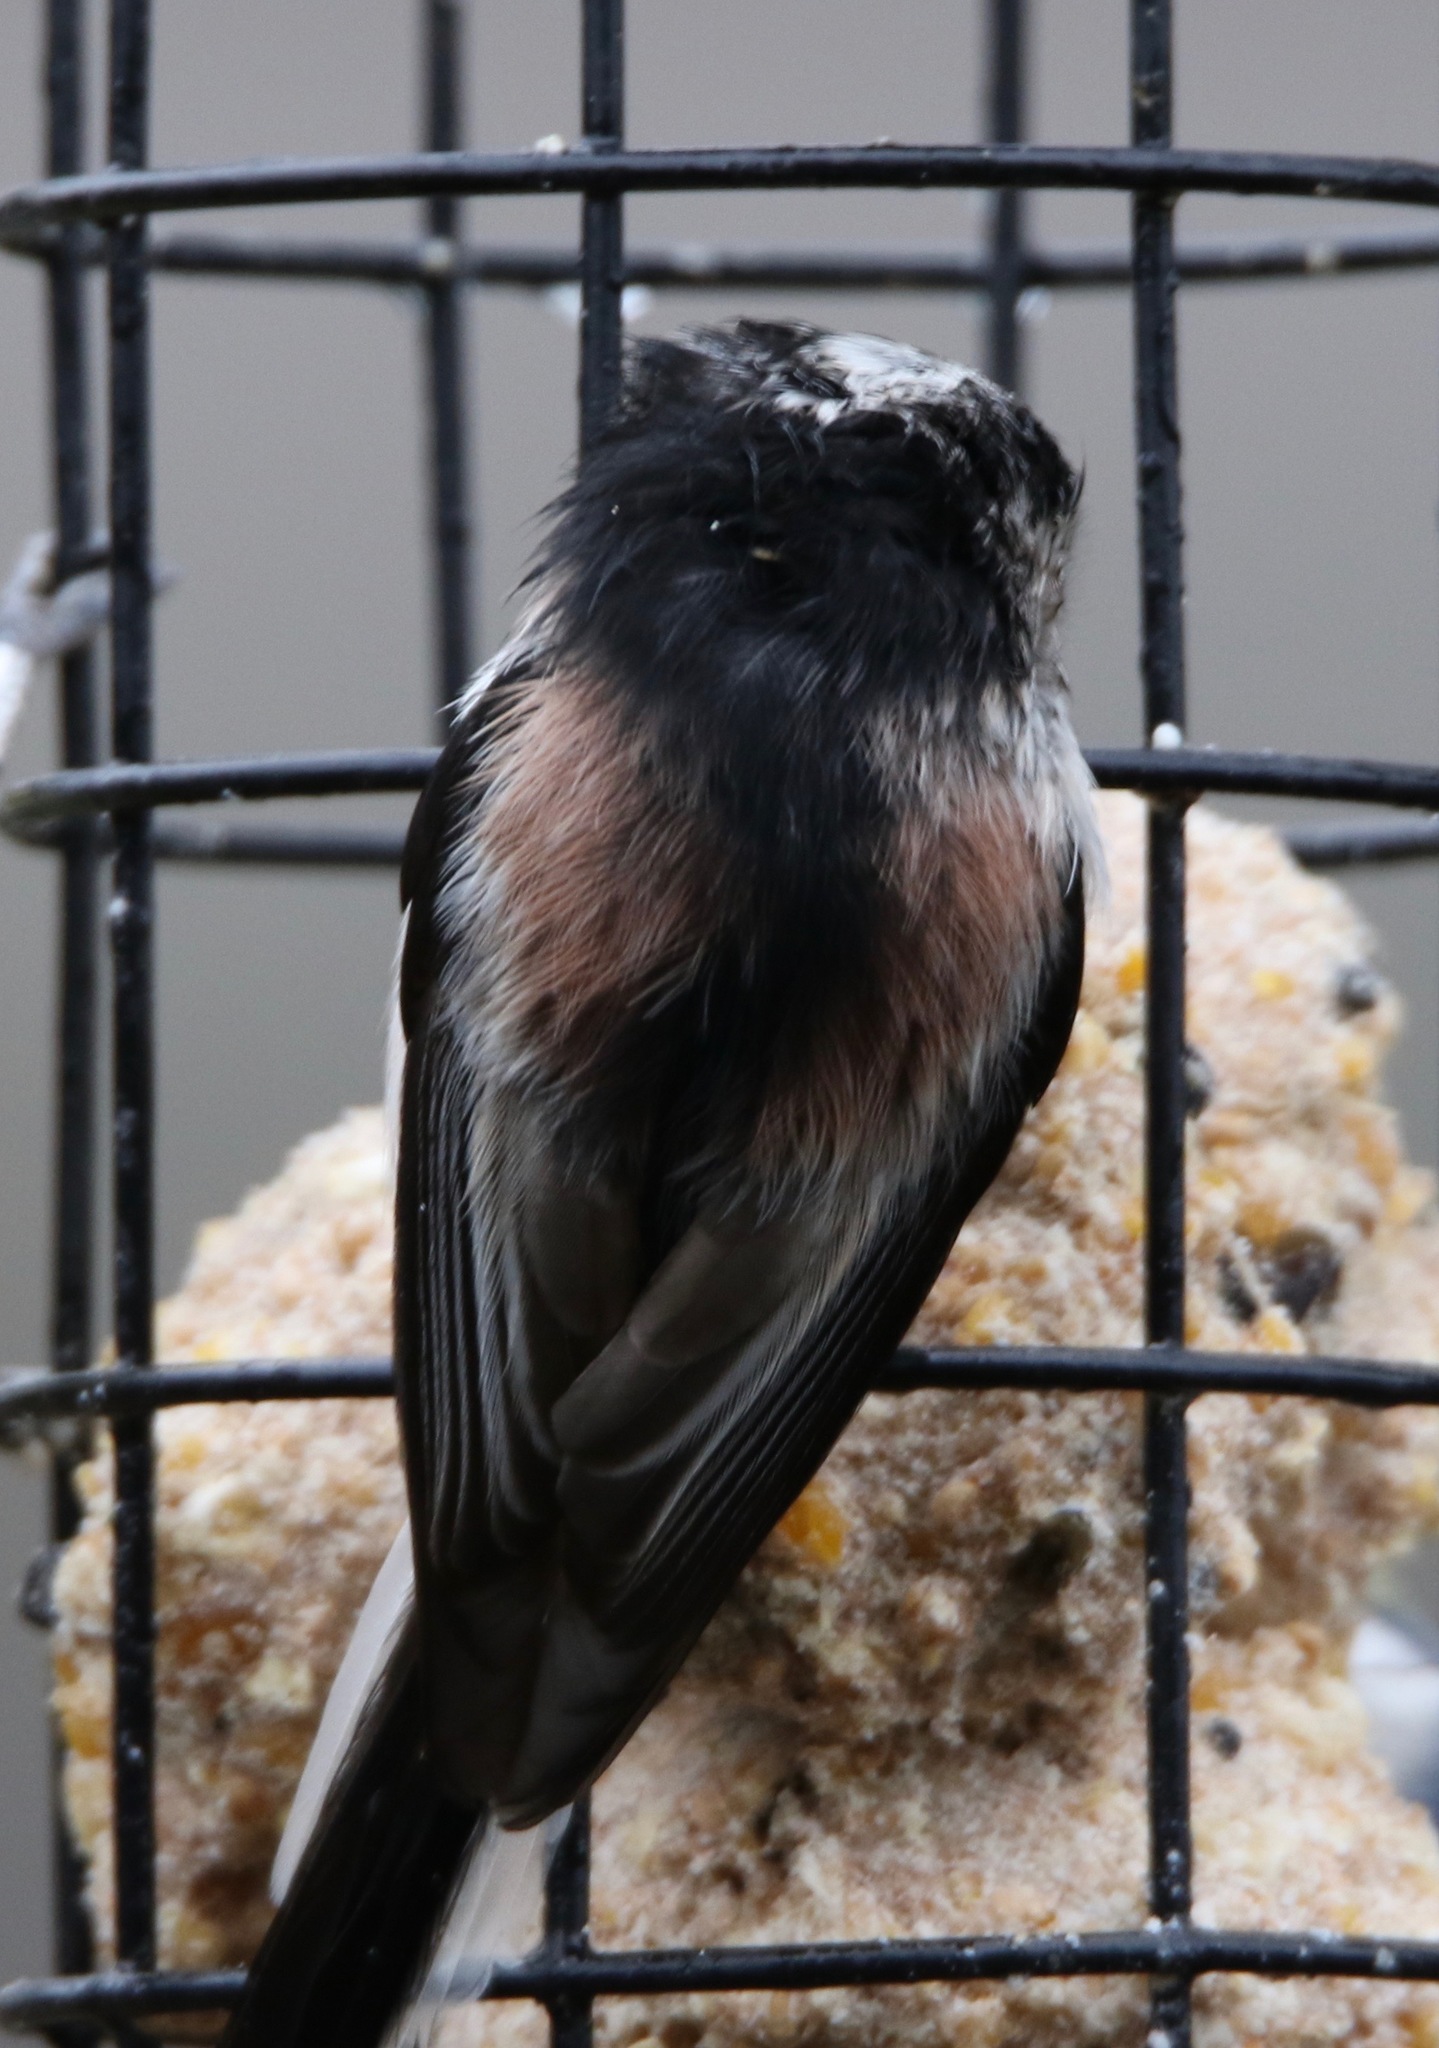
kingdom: Animalia
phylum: Chordata
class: Aves
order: Passeriformes
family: Aegithalidae
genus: Aegithalos
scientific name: Aegithalos caudatus
